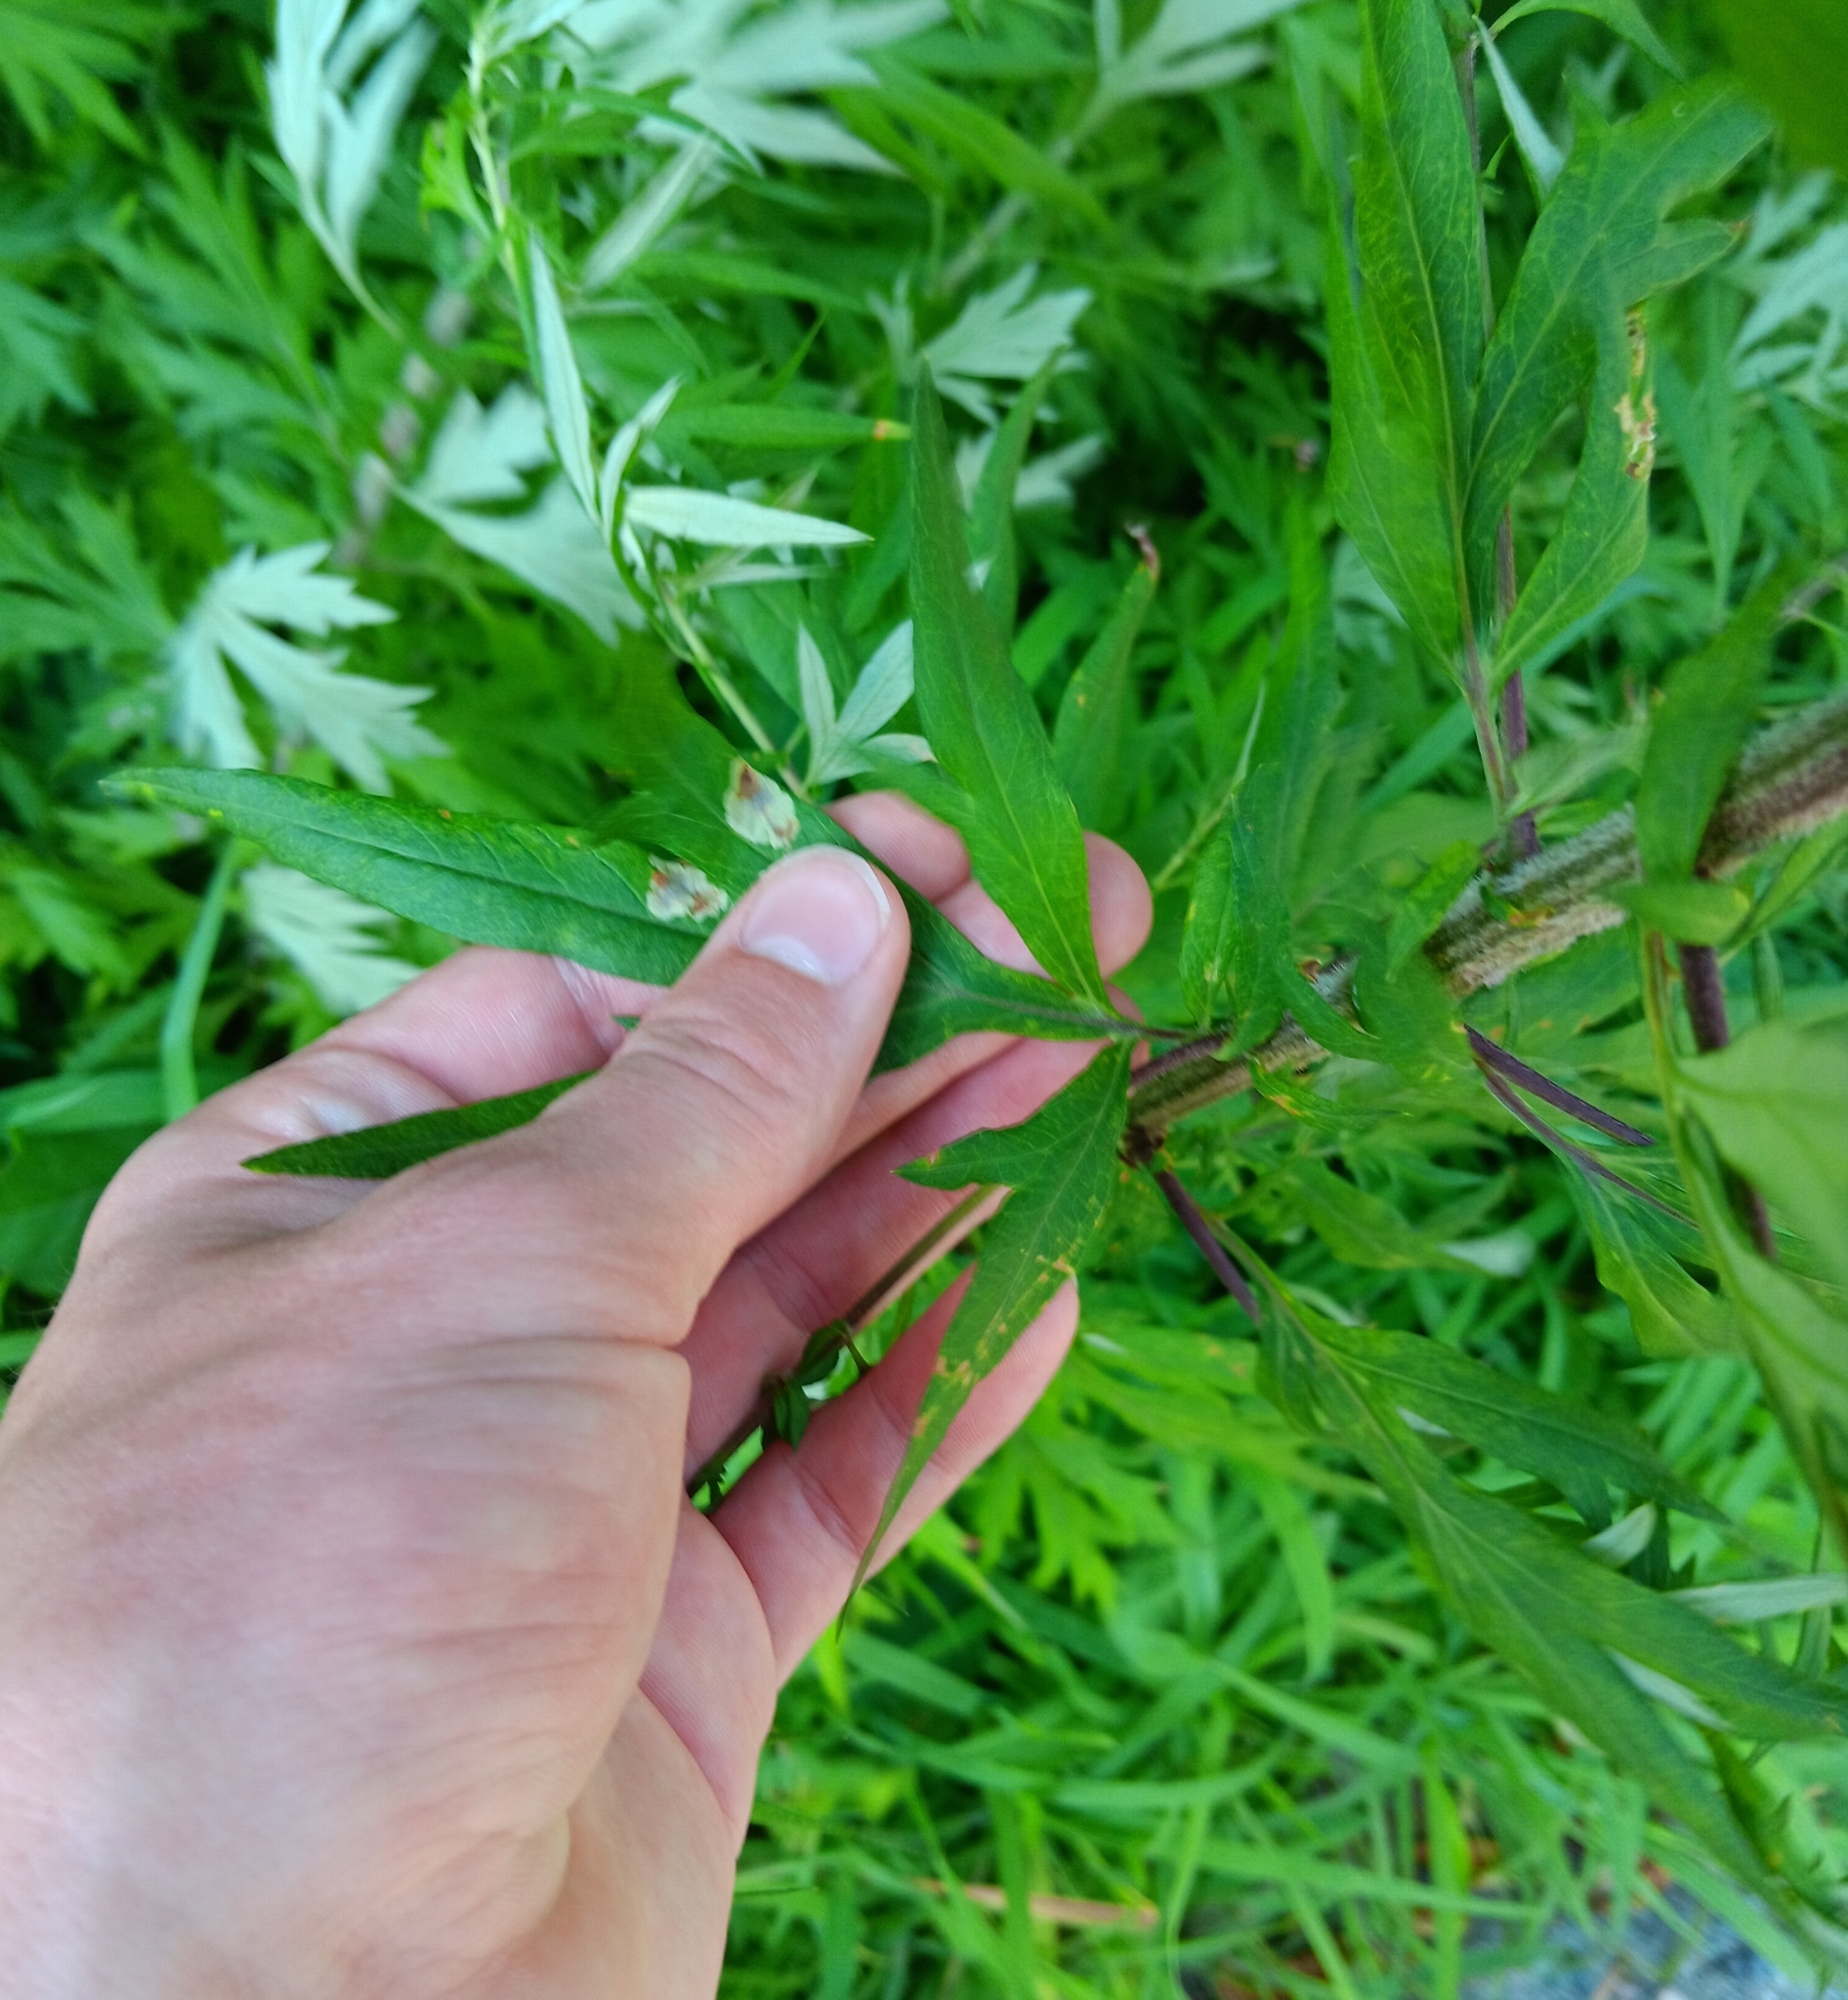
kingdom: Plantae
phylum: Tracheophyta
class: Magnoliopsida
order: Asterales
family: Asteraceae
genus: Artemisia
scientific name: Artemisia vulgaris
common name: Mugwort
